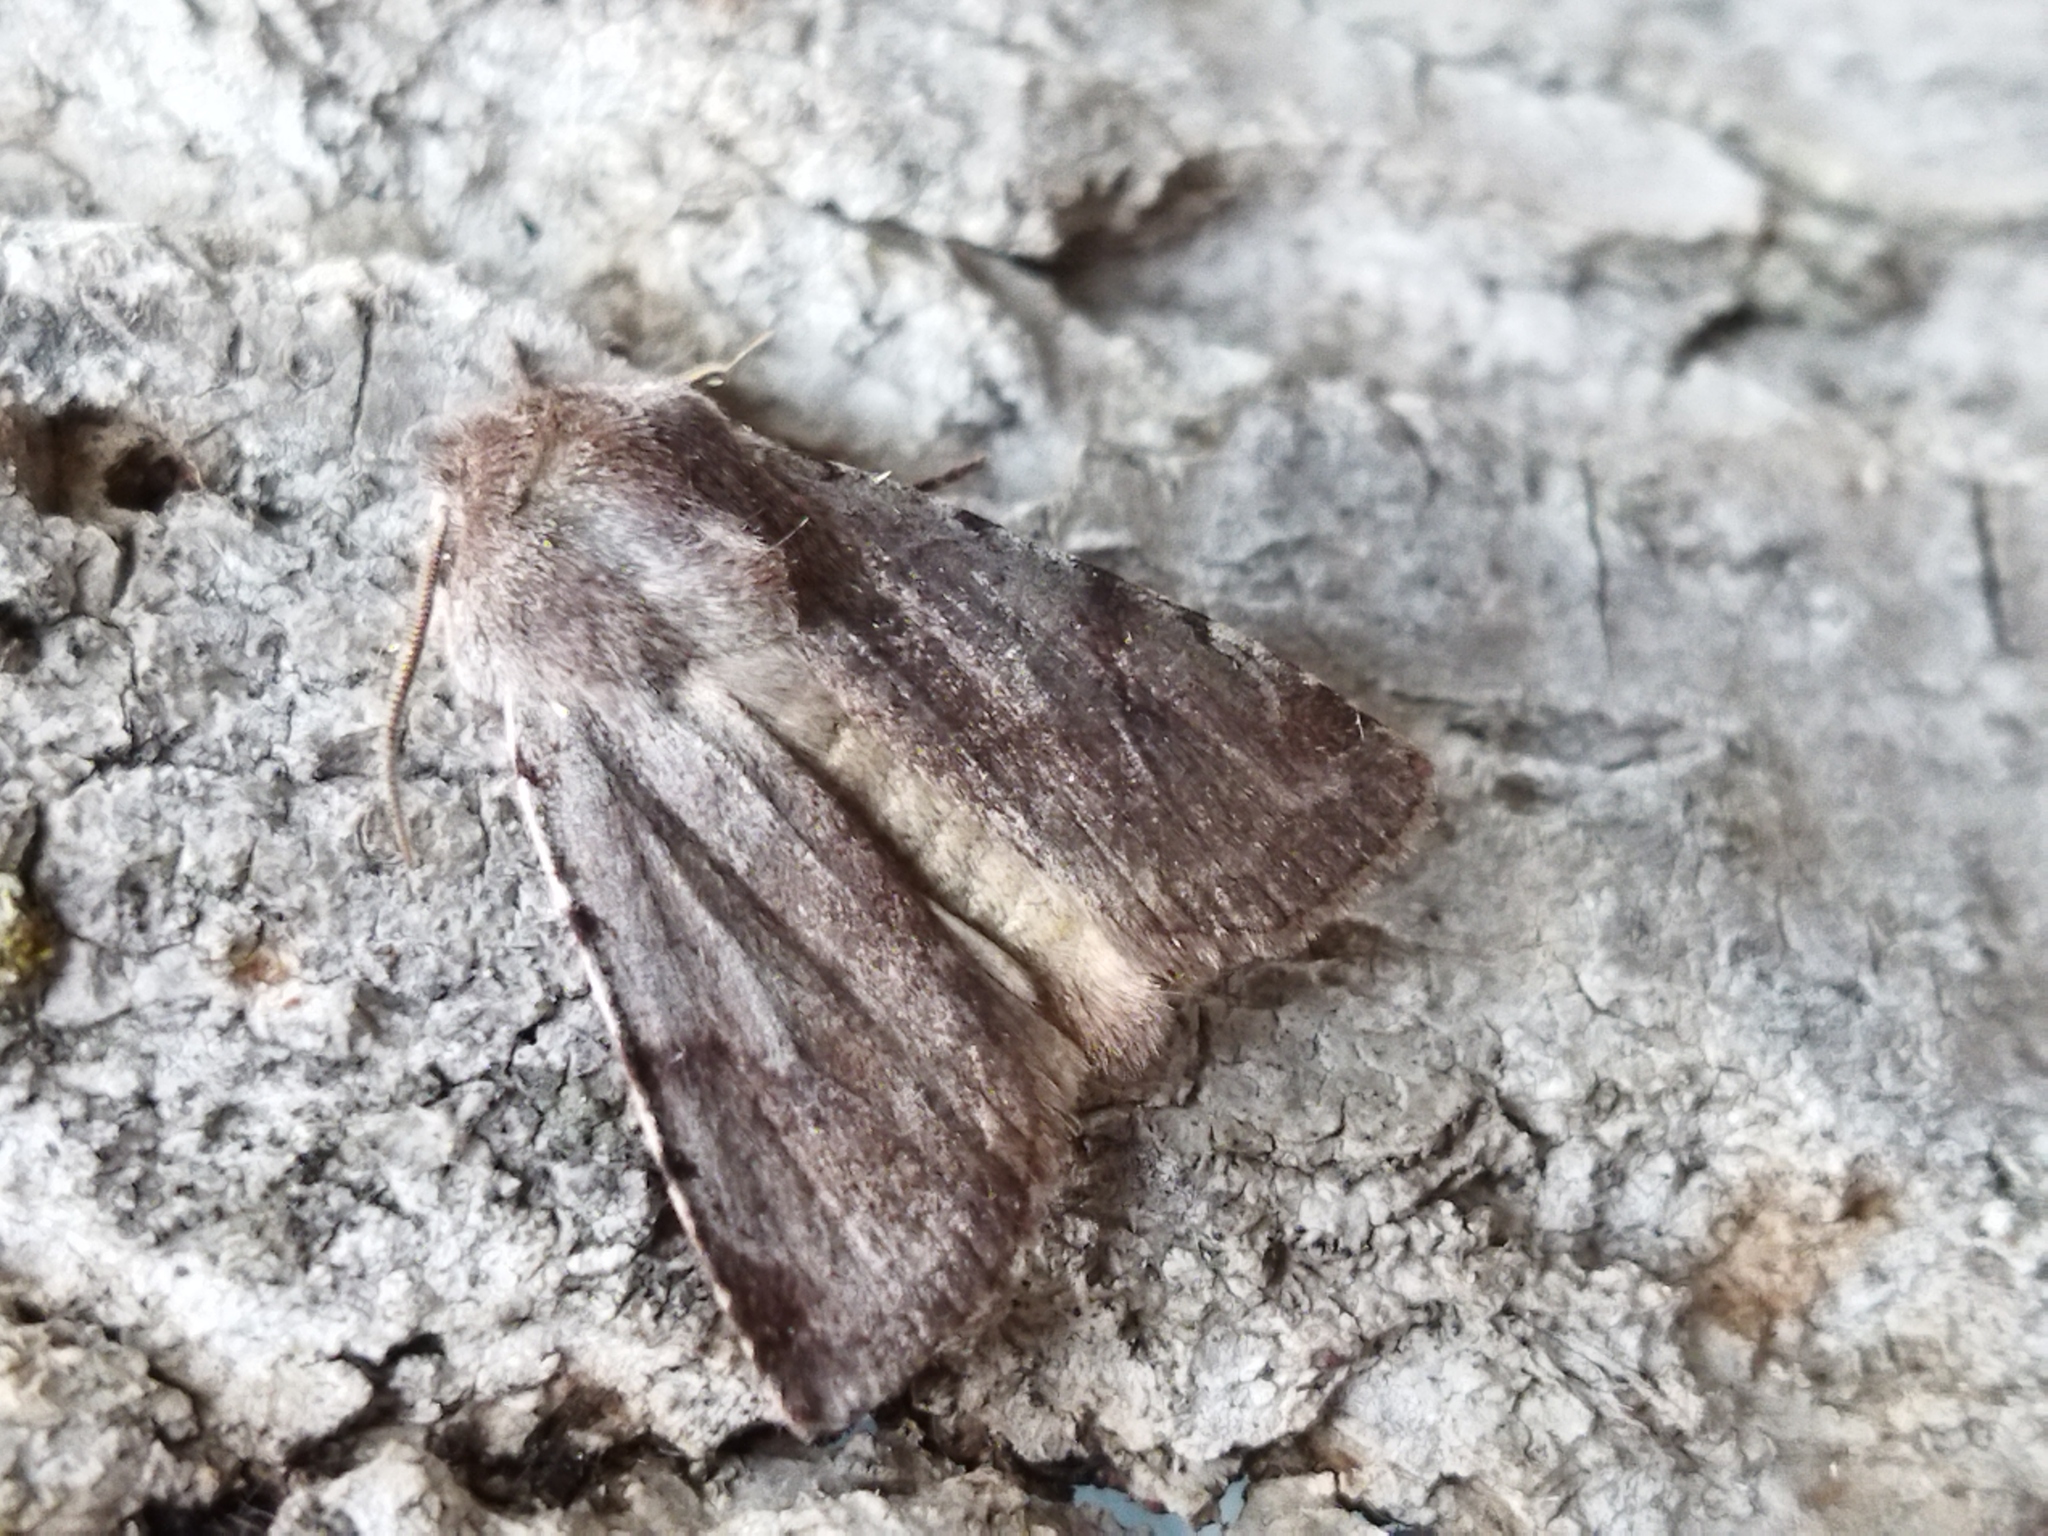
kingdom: Animalia
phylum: Arthropoda
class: Insecta
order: Lepidoptera
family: Noctuidae
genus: Cerastis
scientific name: Cerastis rubricosa
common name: Red chestnut
